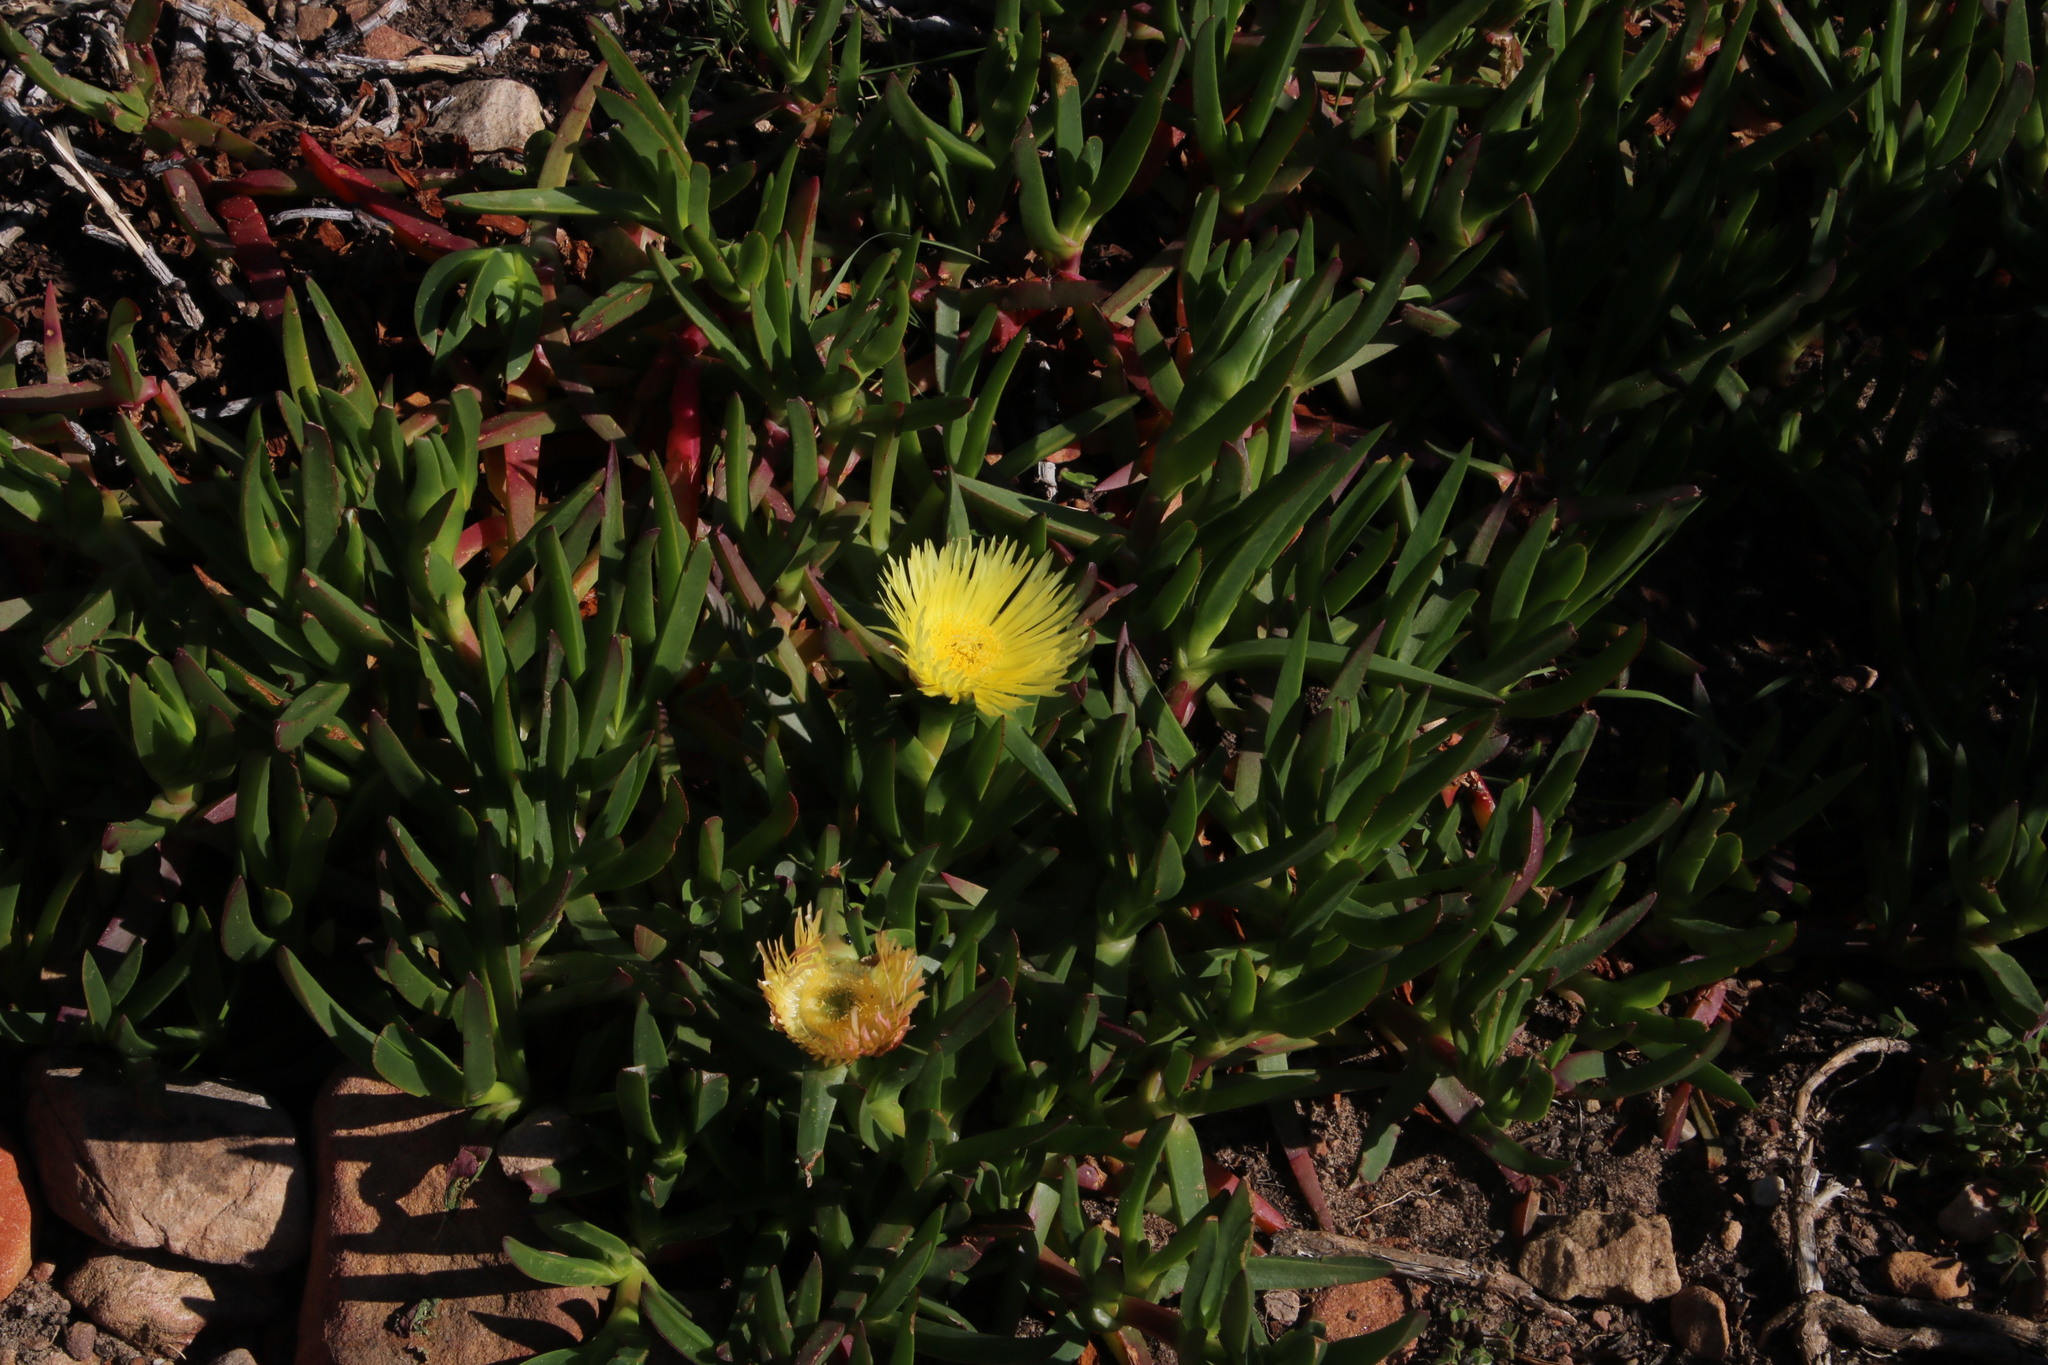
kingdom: Plantae
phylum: Tracheophyta
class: Magnoliopsida
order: Caryophyllales
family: Aizoaceae
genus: Carpobrotus
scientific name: Carpobrotus edulis
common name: Hottentot-fig
